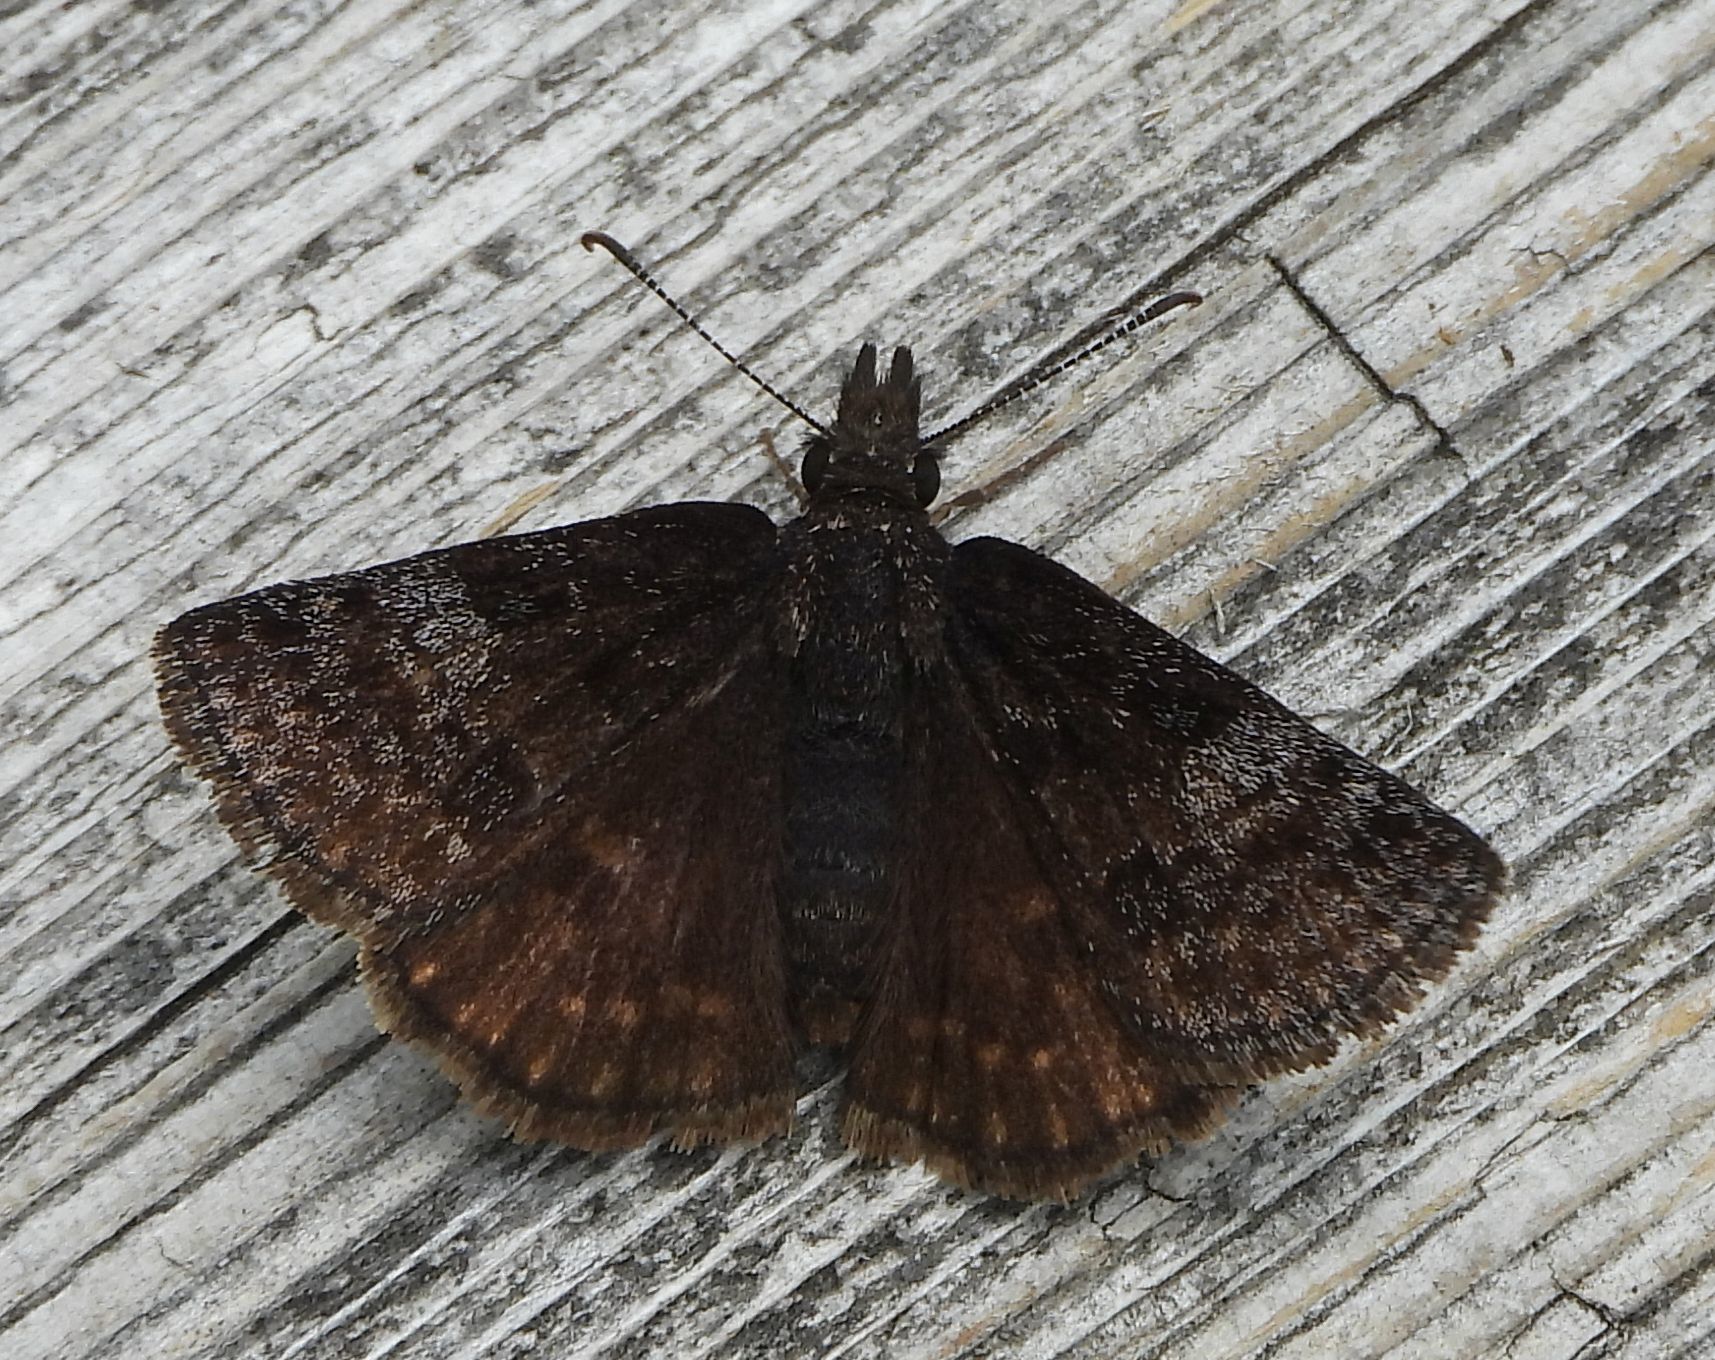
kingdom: Animalia
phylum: Arthropoda
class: Insecta
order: Lepidoptera
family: Hesperiidae
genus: Erynnis
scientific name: Erynnis icelus
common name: Dreamy duskywing
